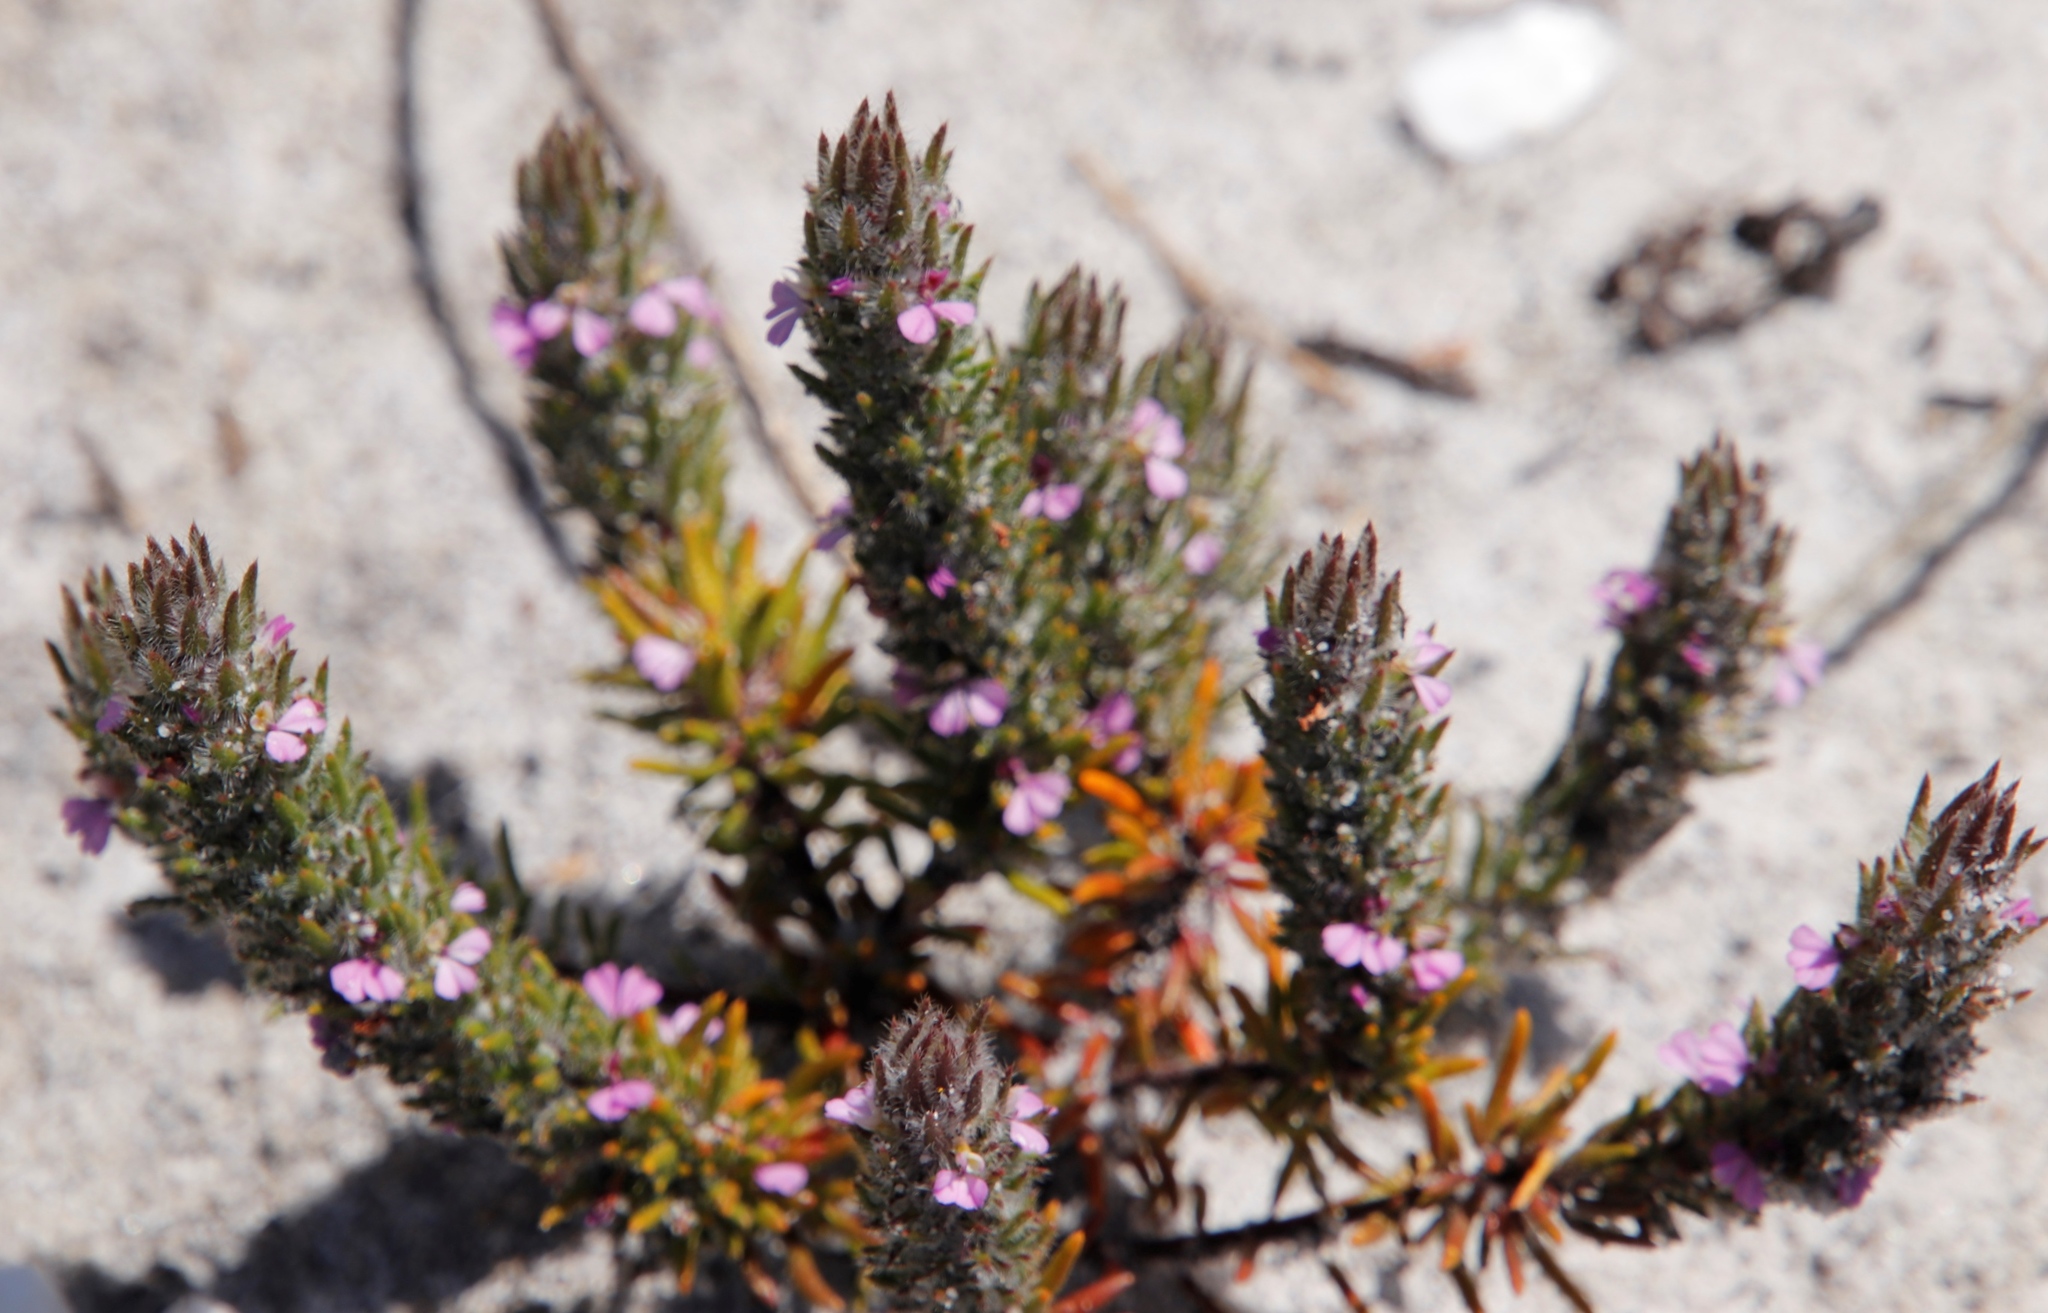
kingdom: Plantae
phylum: Tracheophyta
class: Magnoliopsida
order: Fabales
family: Polygalaceae
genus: Muraltia
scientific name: Muraltia thunbergii
